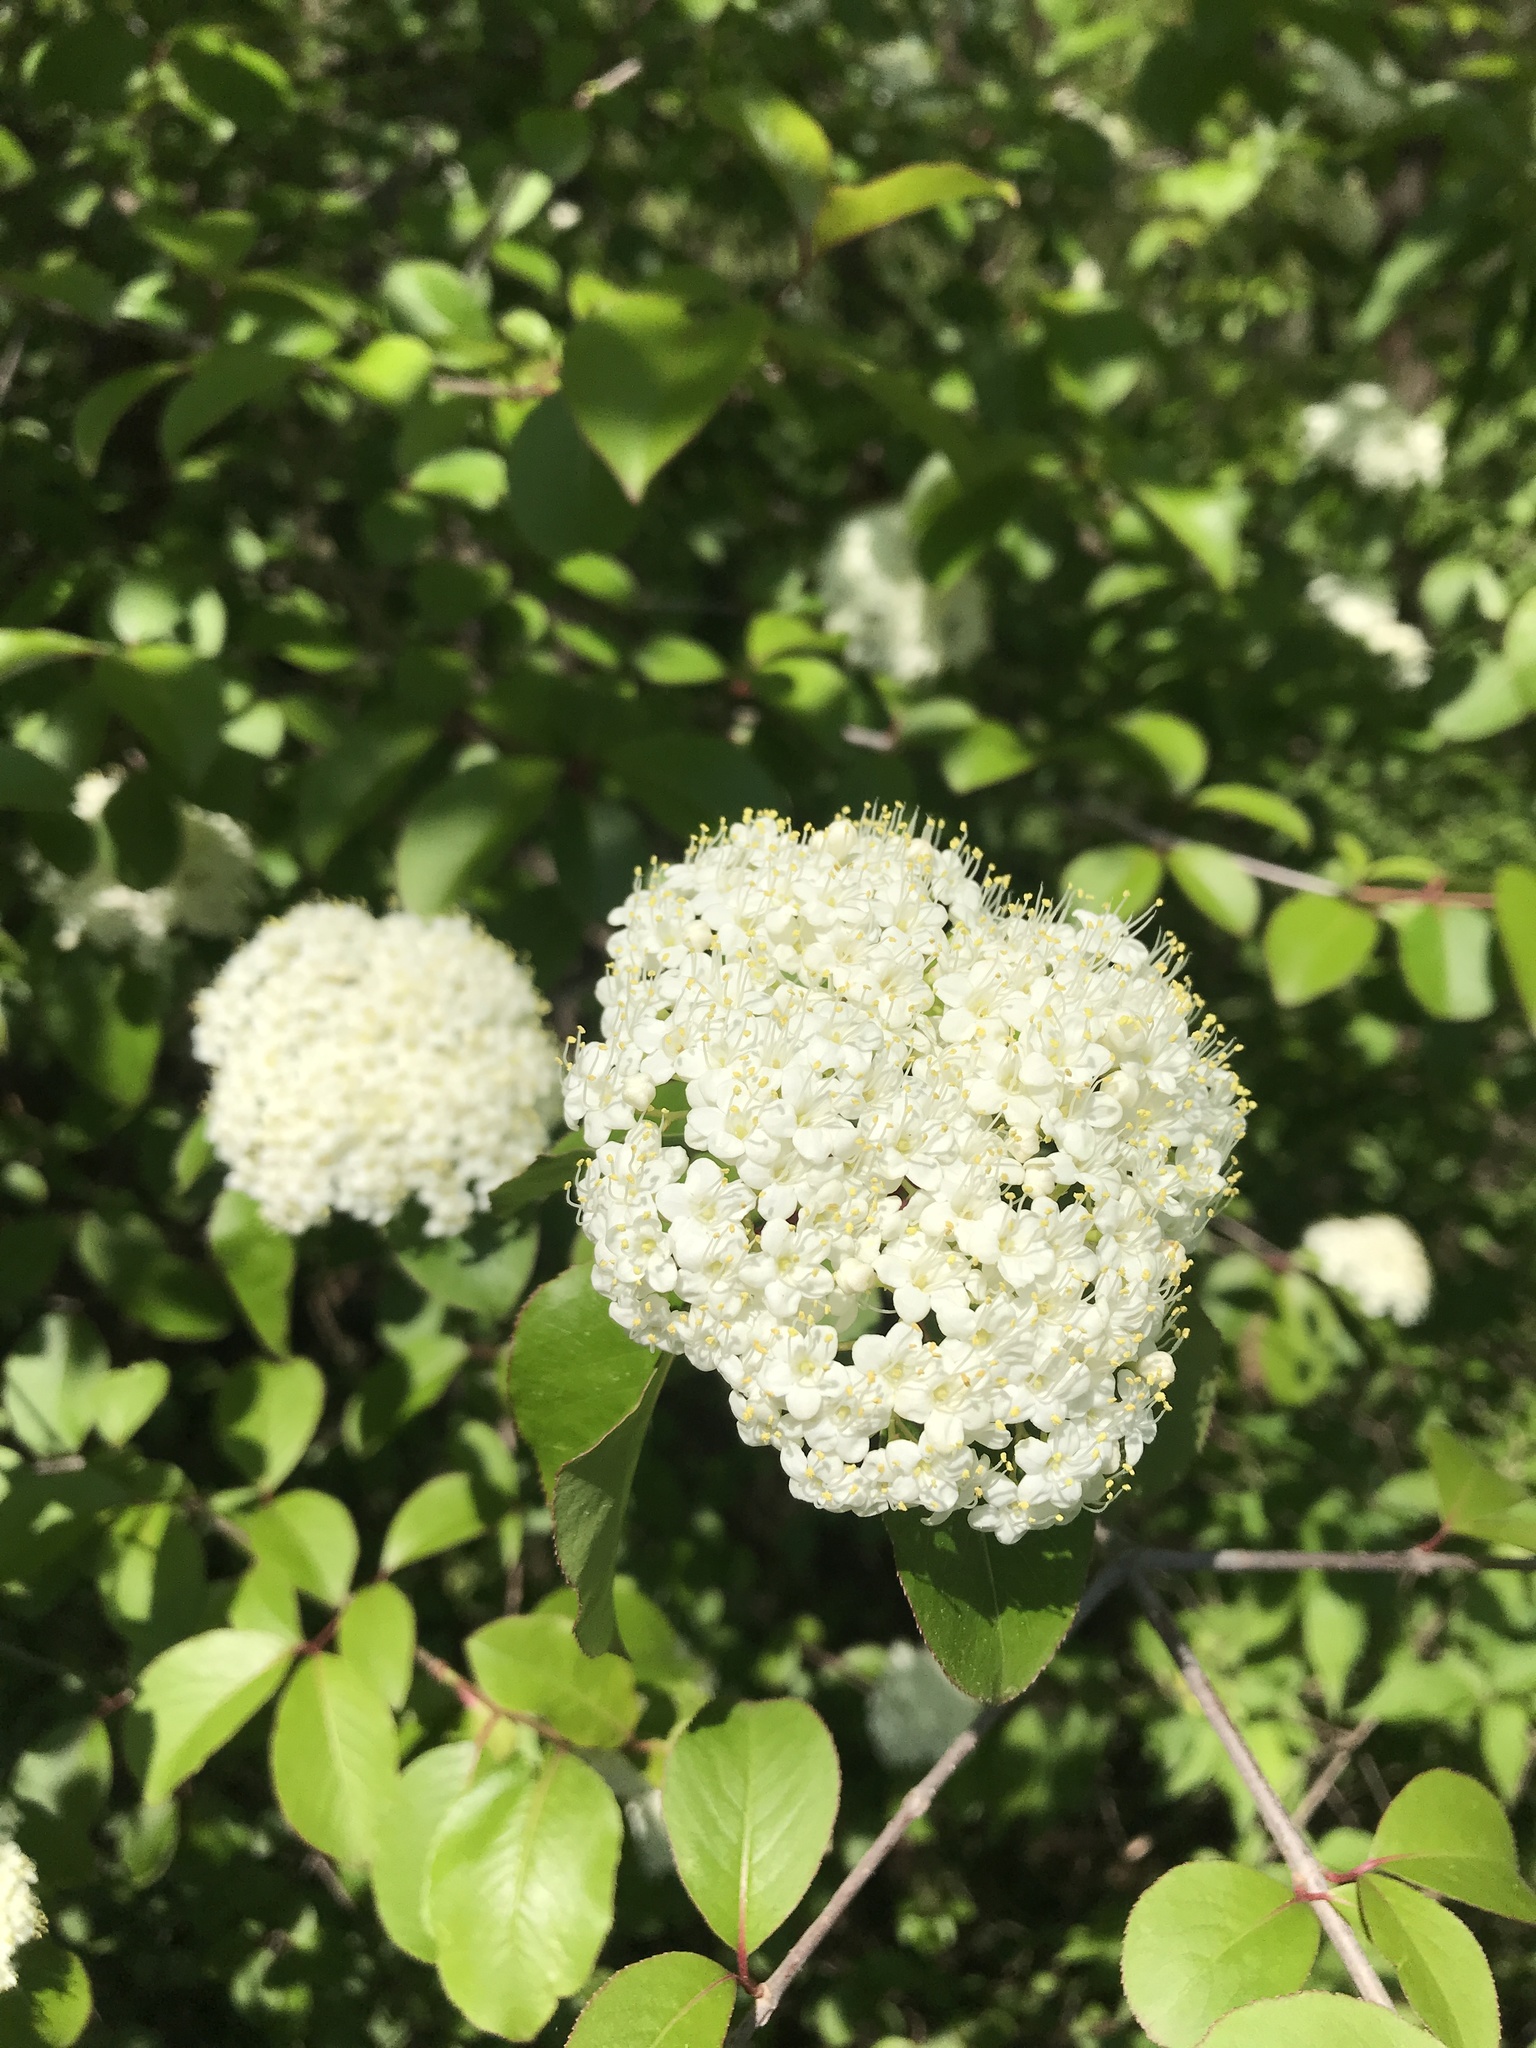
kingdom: Plantae
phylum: Tracheophyta
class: Magnoliopsida
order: Dipsacales
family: Viburnaceae
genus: Viburnum
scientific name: Viburnum prunifolium
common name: Black haw
